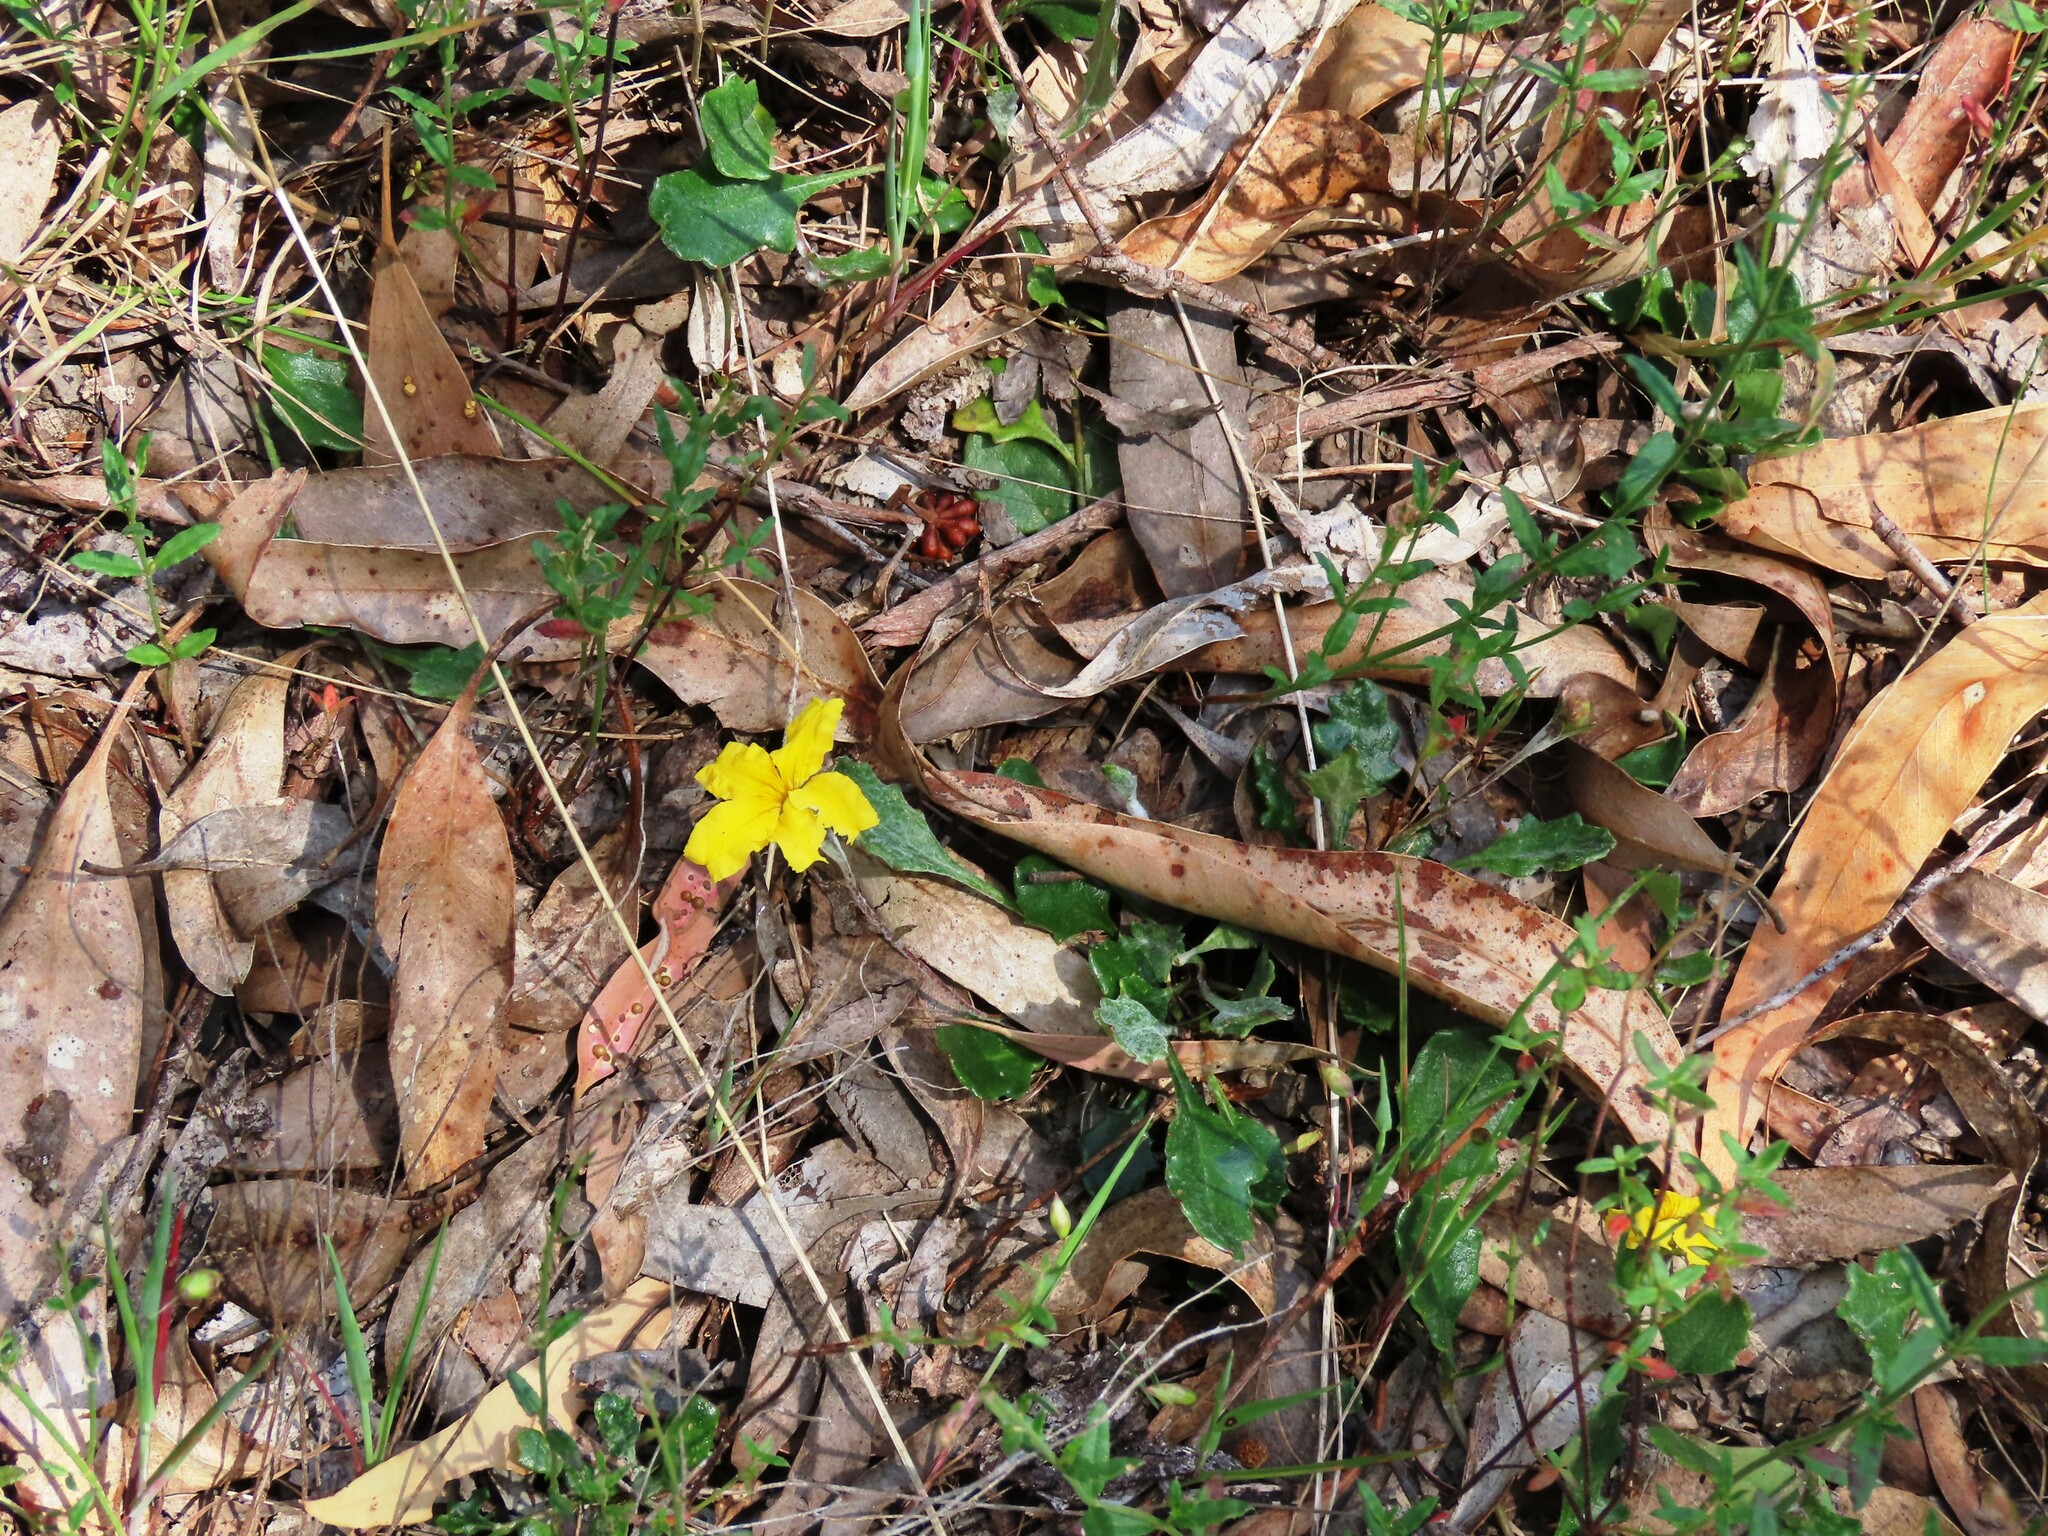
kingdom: Plantae
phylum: Tracheophyta
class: Magnoliopsida
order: Asterales
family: Goodeniaceae
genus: Goodenia
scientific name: Goodenia lanata
